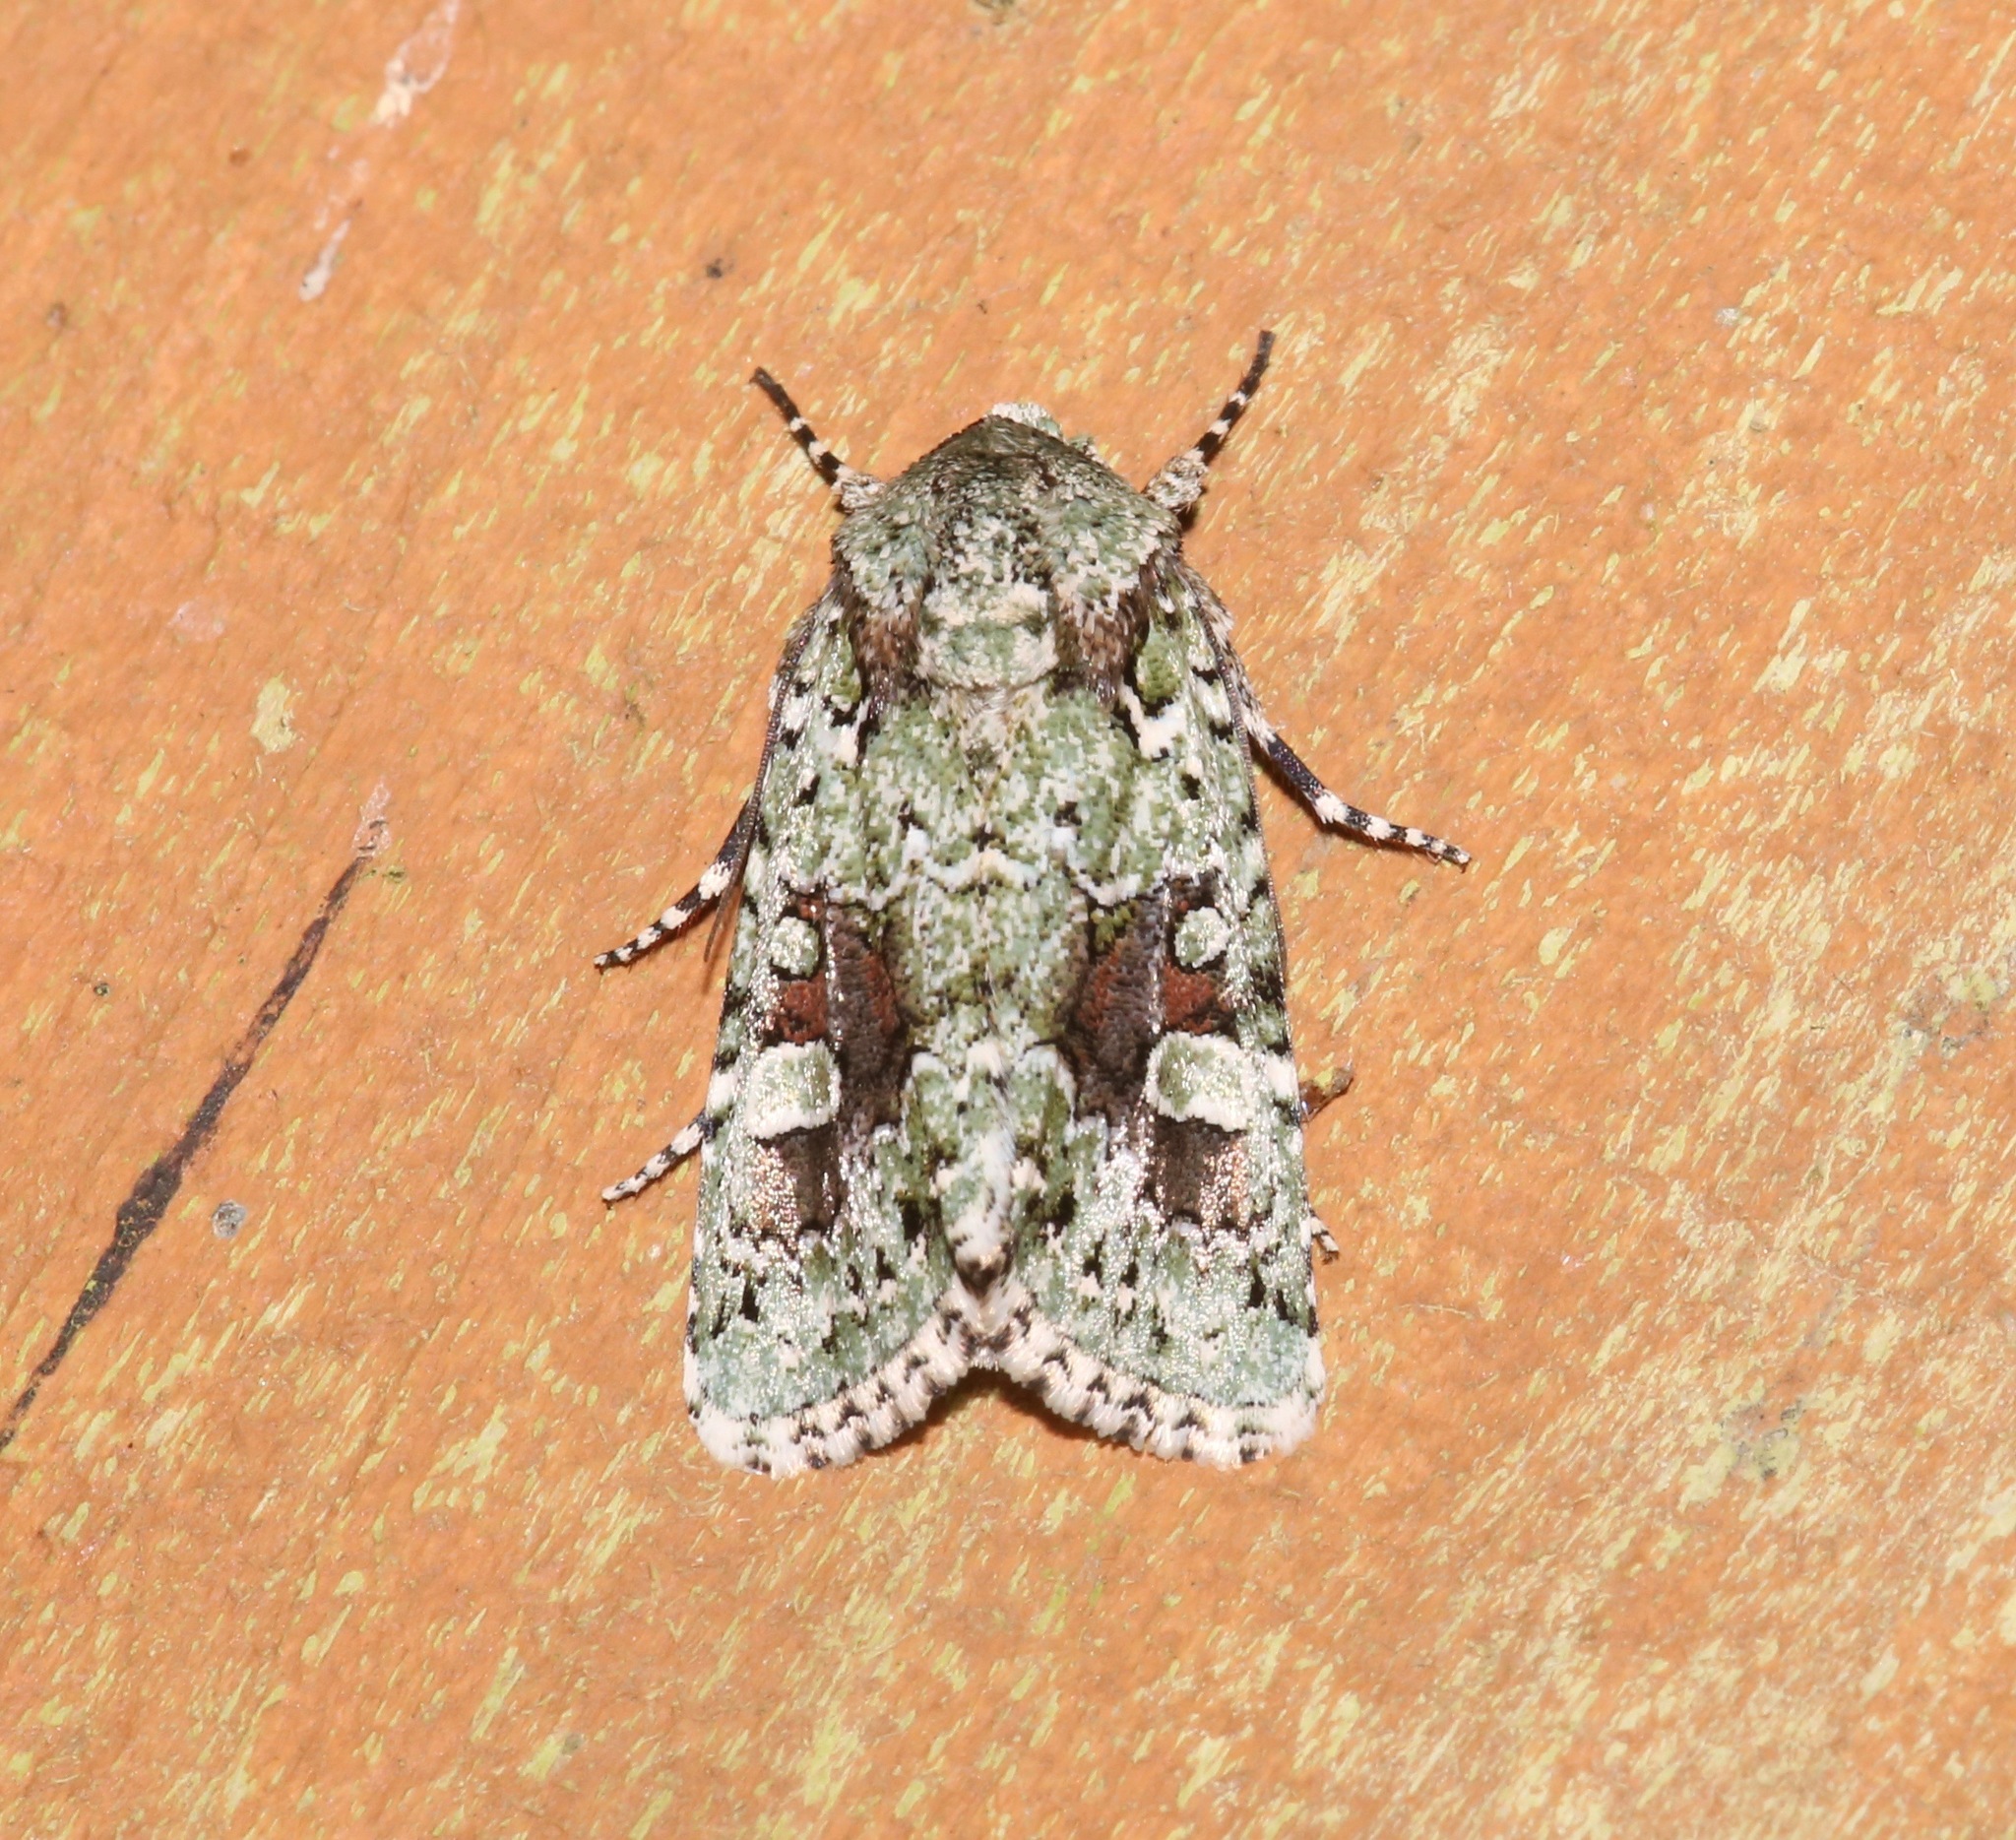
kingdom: Animalia
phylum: Arthropoda
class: Insecta
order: Lepidoptera
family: Noctuidae
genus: Lacinipolia
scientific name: Lacinipolia laudabilis
